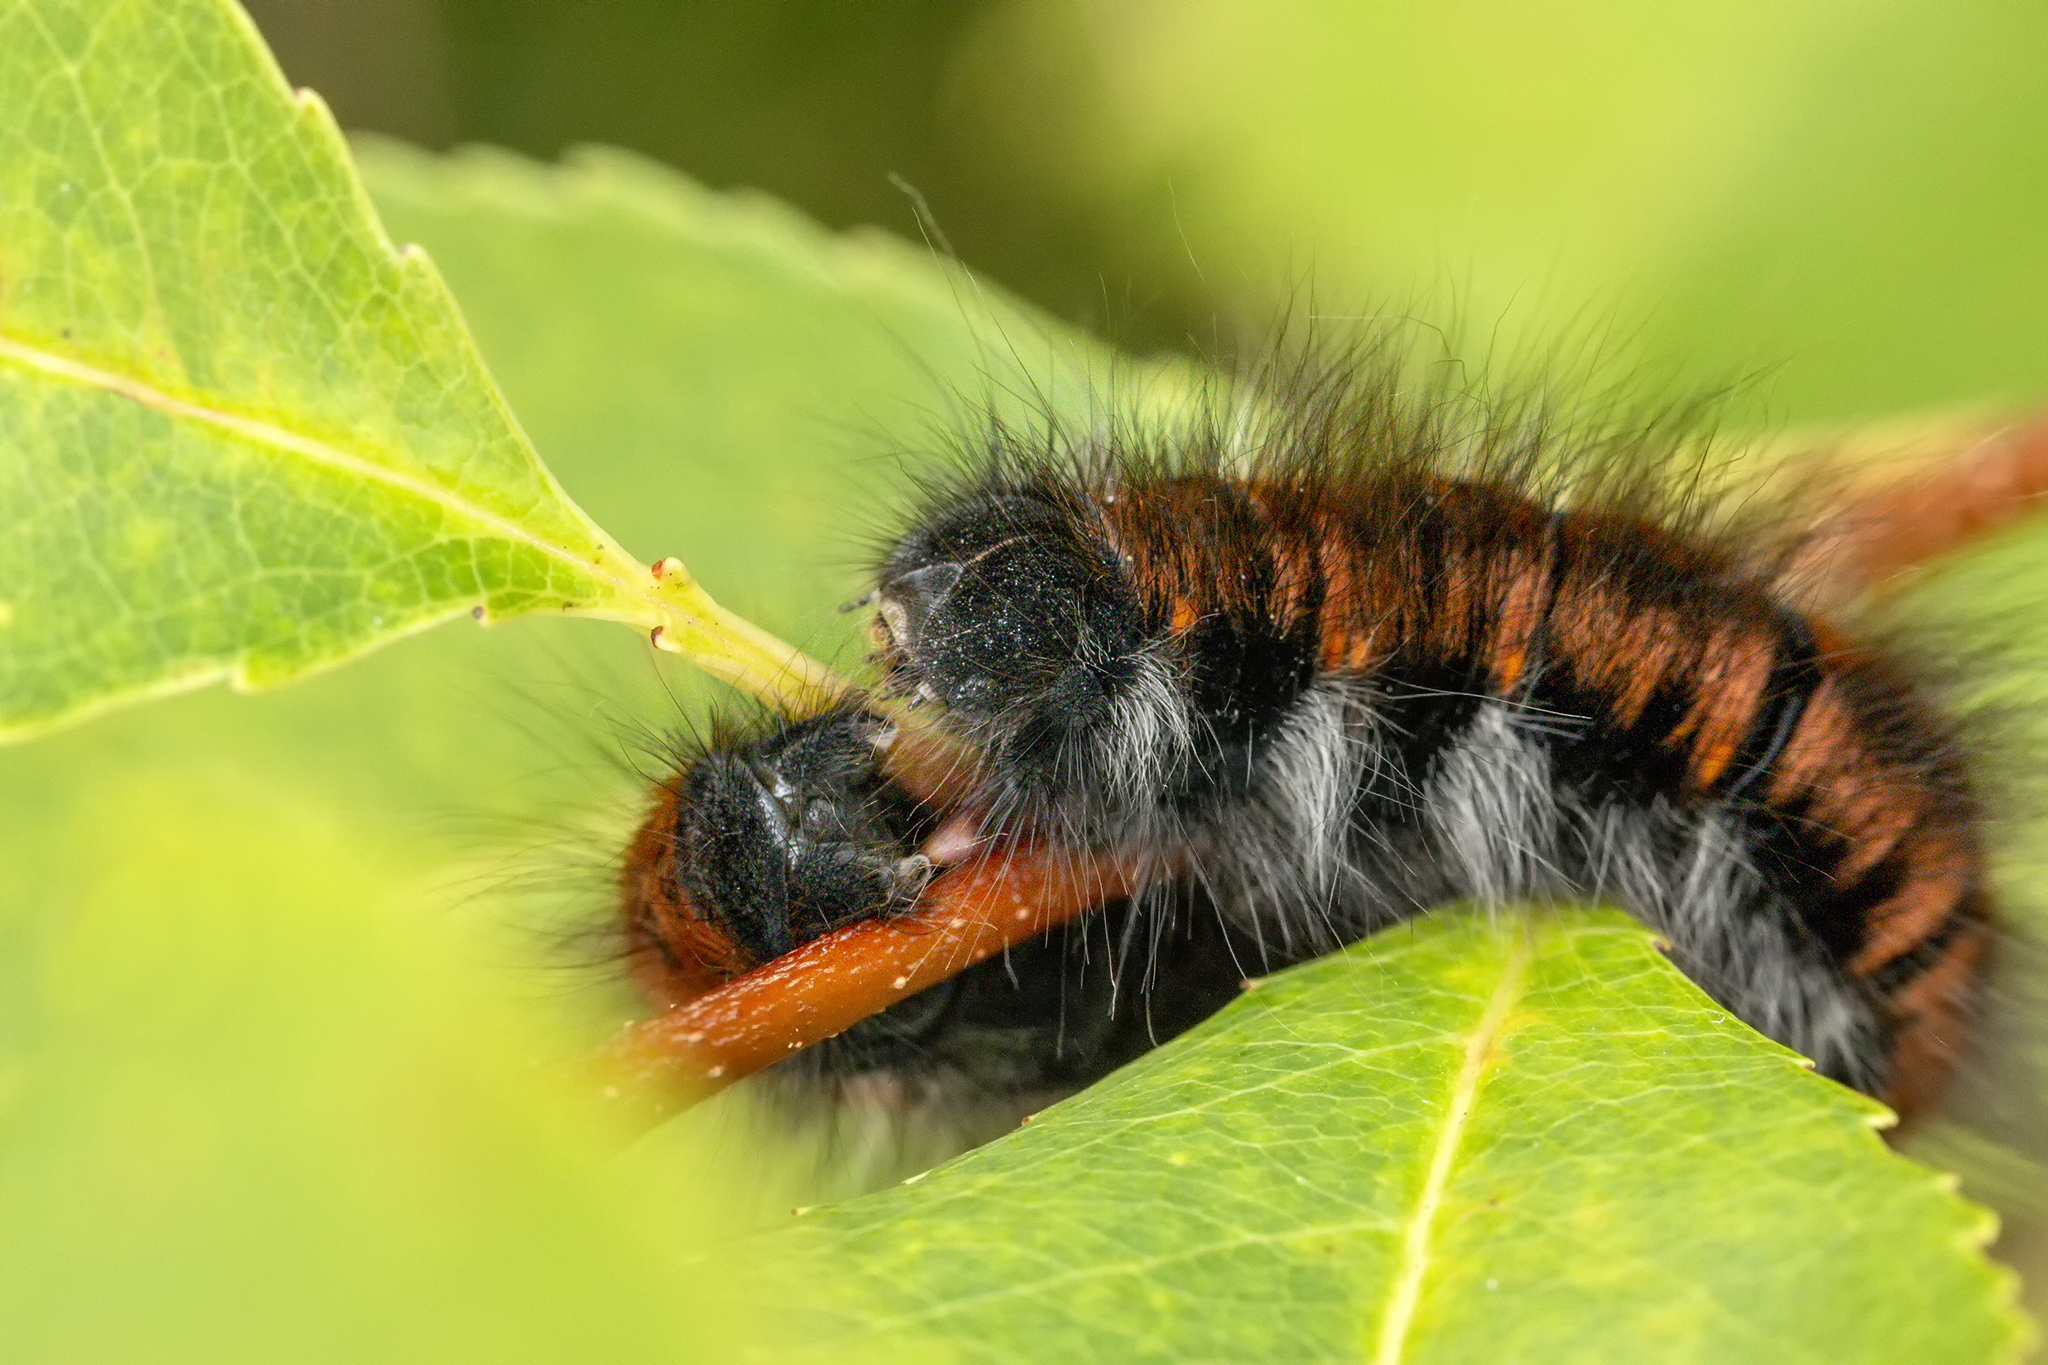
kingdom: Animalia
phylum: Arthropoda
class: Insecta
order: Lepidoptera
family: Lasiocampidae
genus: Macrothylacia
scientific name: Macrothylacia rubi
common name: Fox moth
